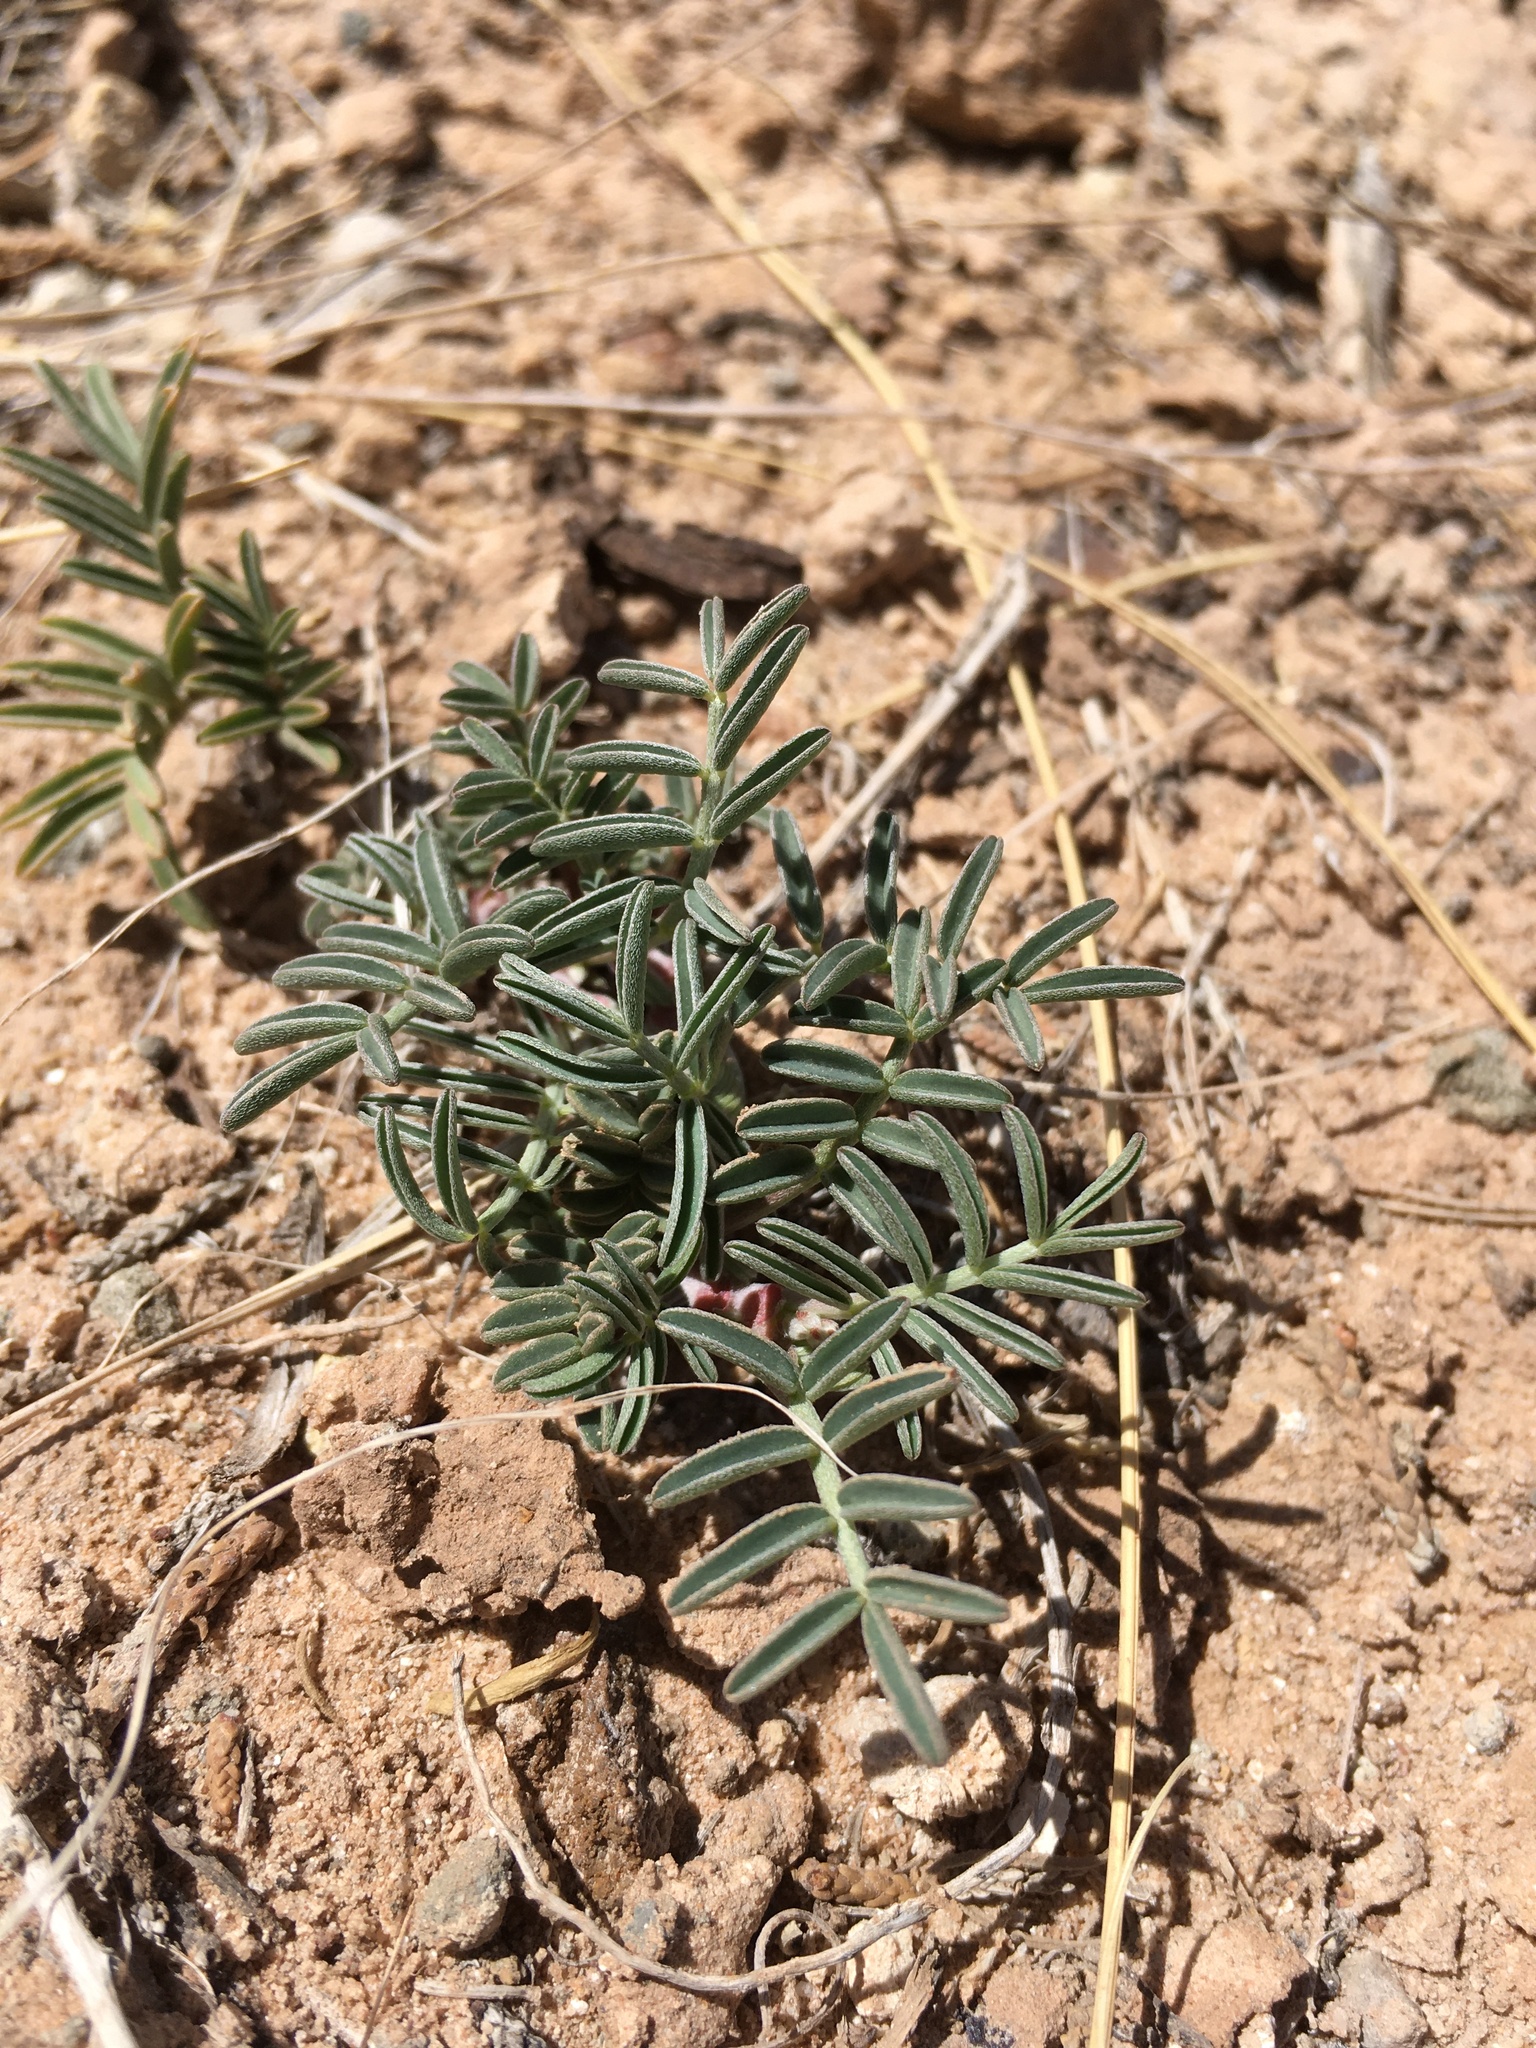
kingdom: Plantae
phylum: Tracheophyta
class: Magnoliopsida
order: Fabales
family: Fabaceae
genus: Astragalus
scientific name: Astragalus fucatus
